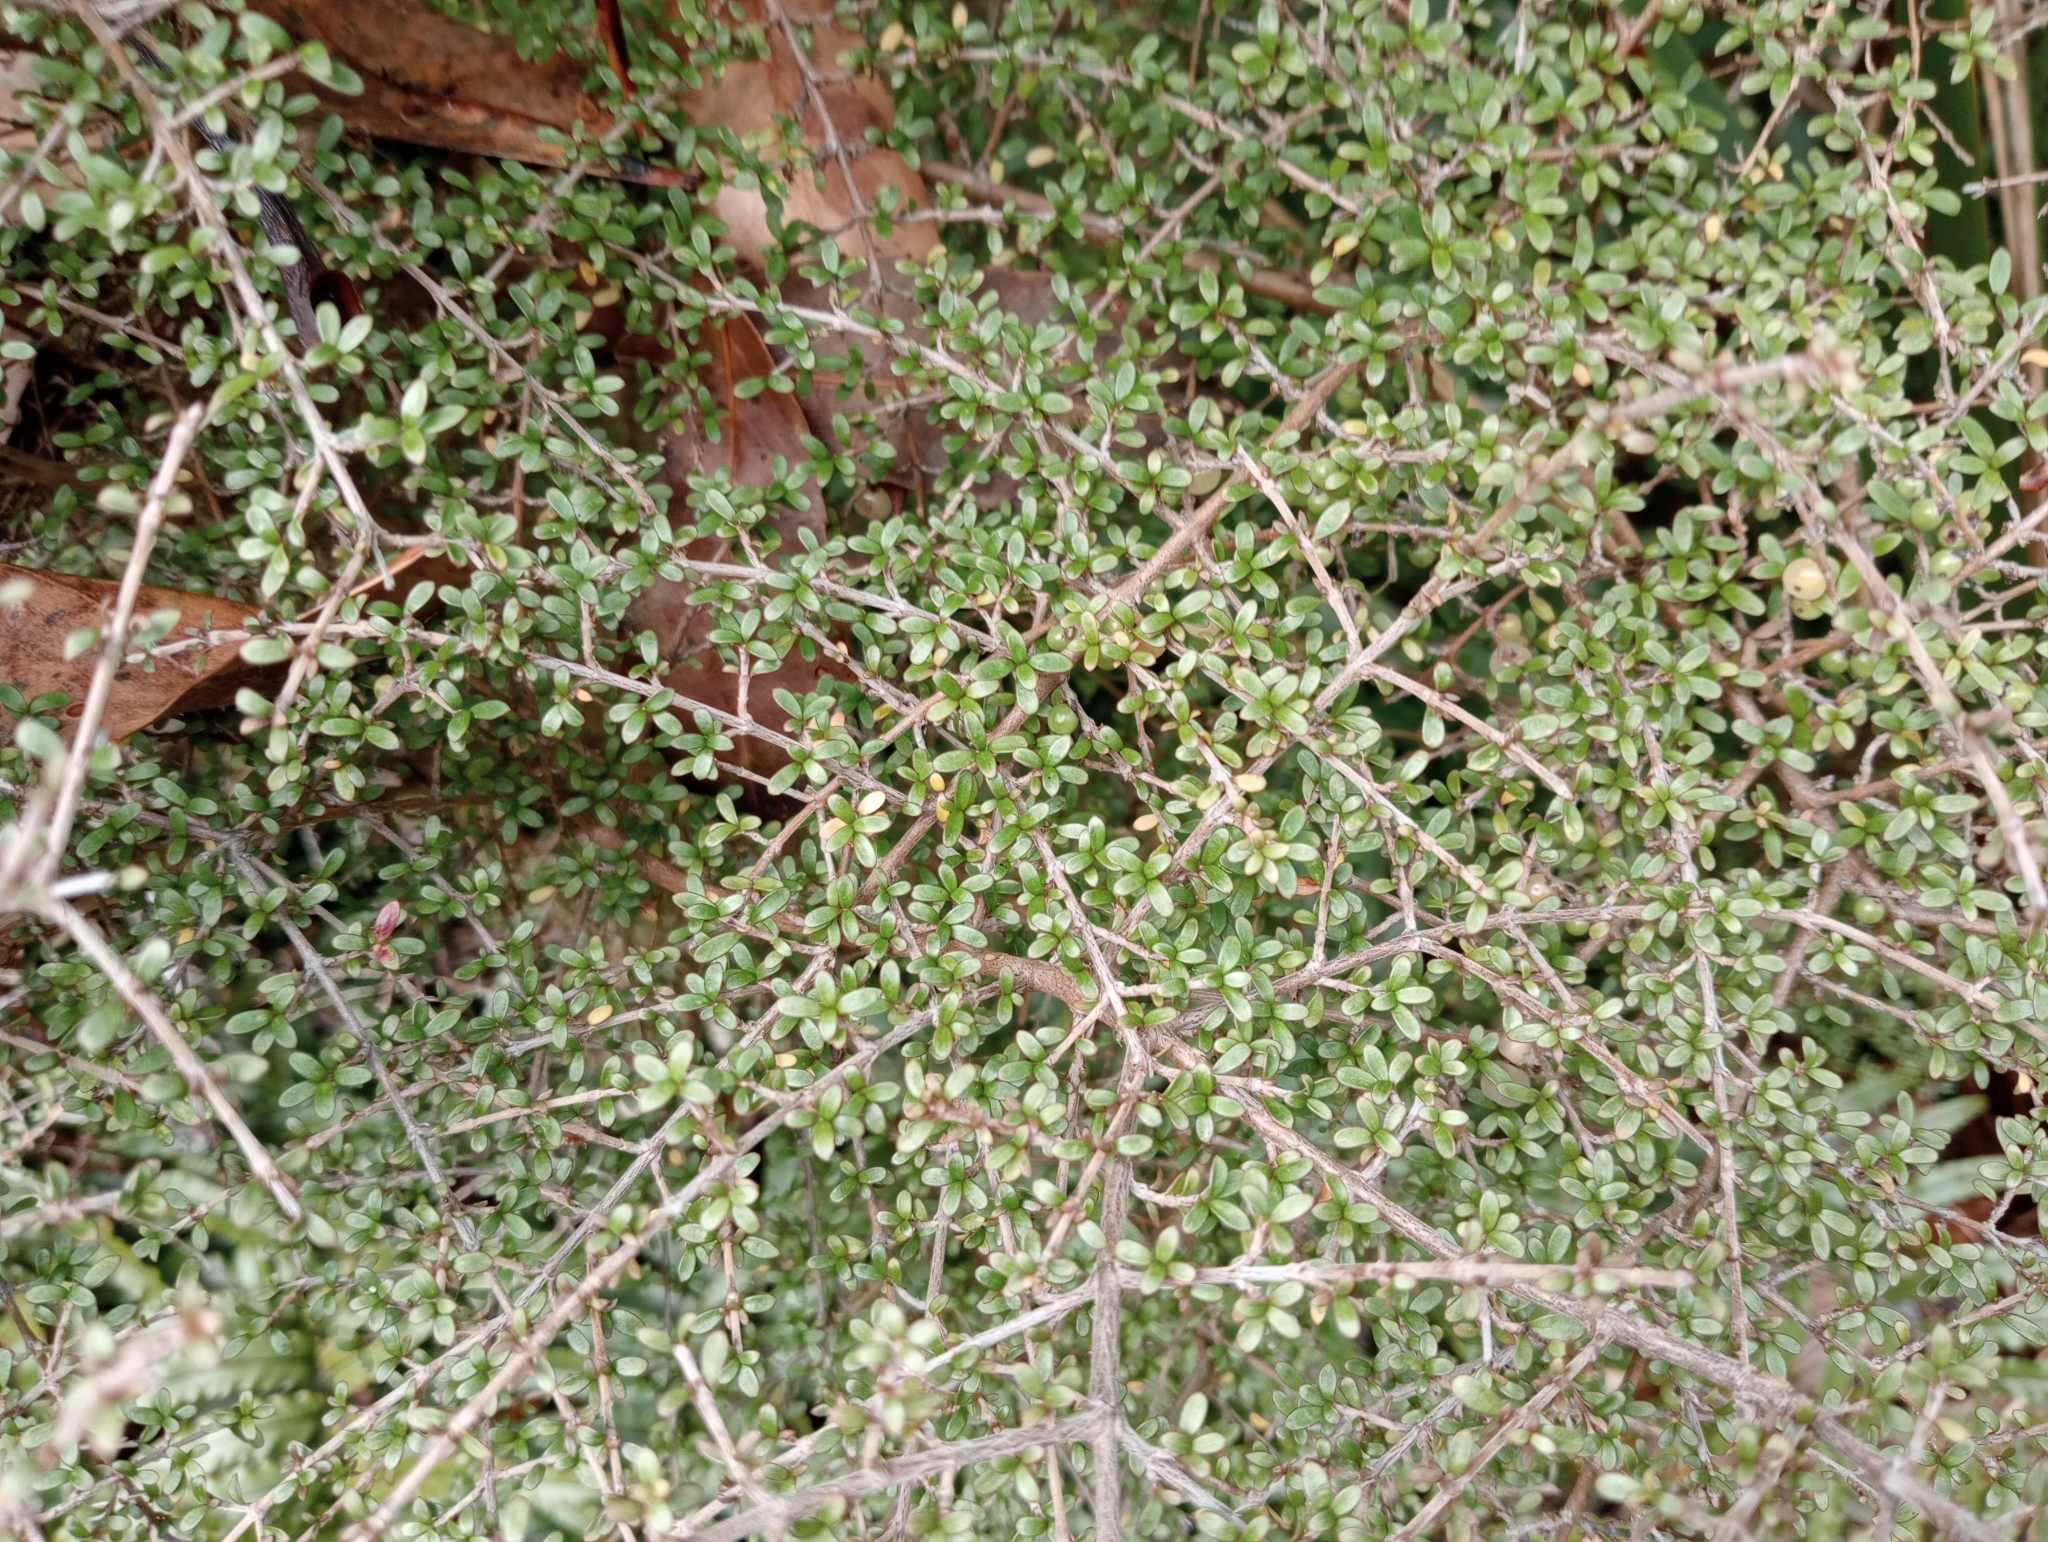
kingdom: Plantae
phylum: Tracheophyta
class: Magnoliopsida
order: Gentianales
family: Rubiaceae
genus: Coprosma
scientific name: Coprosma dumosa
